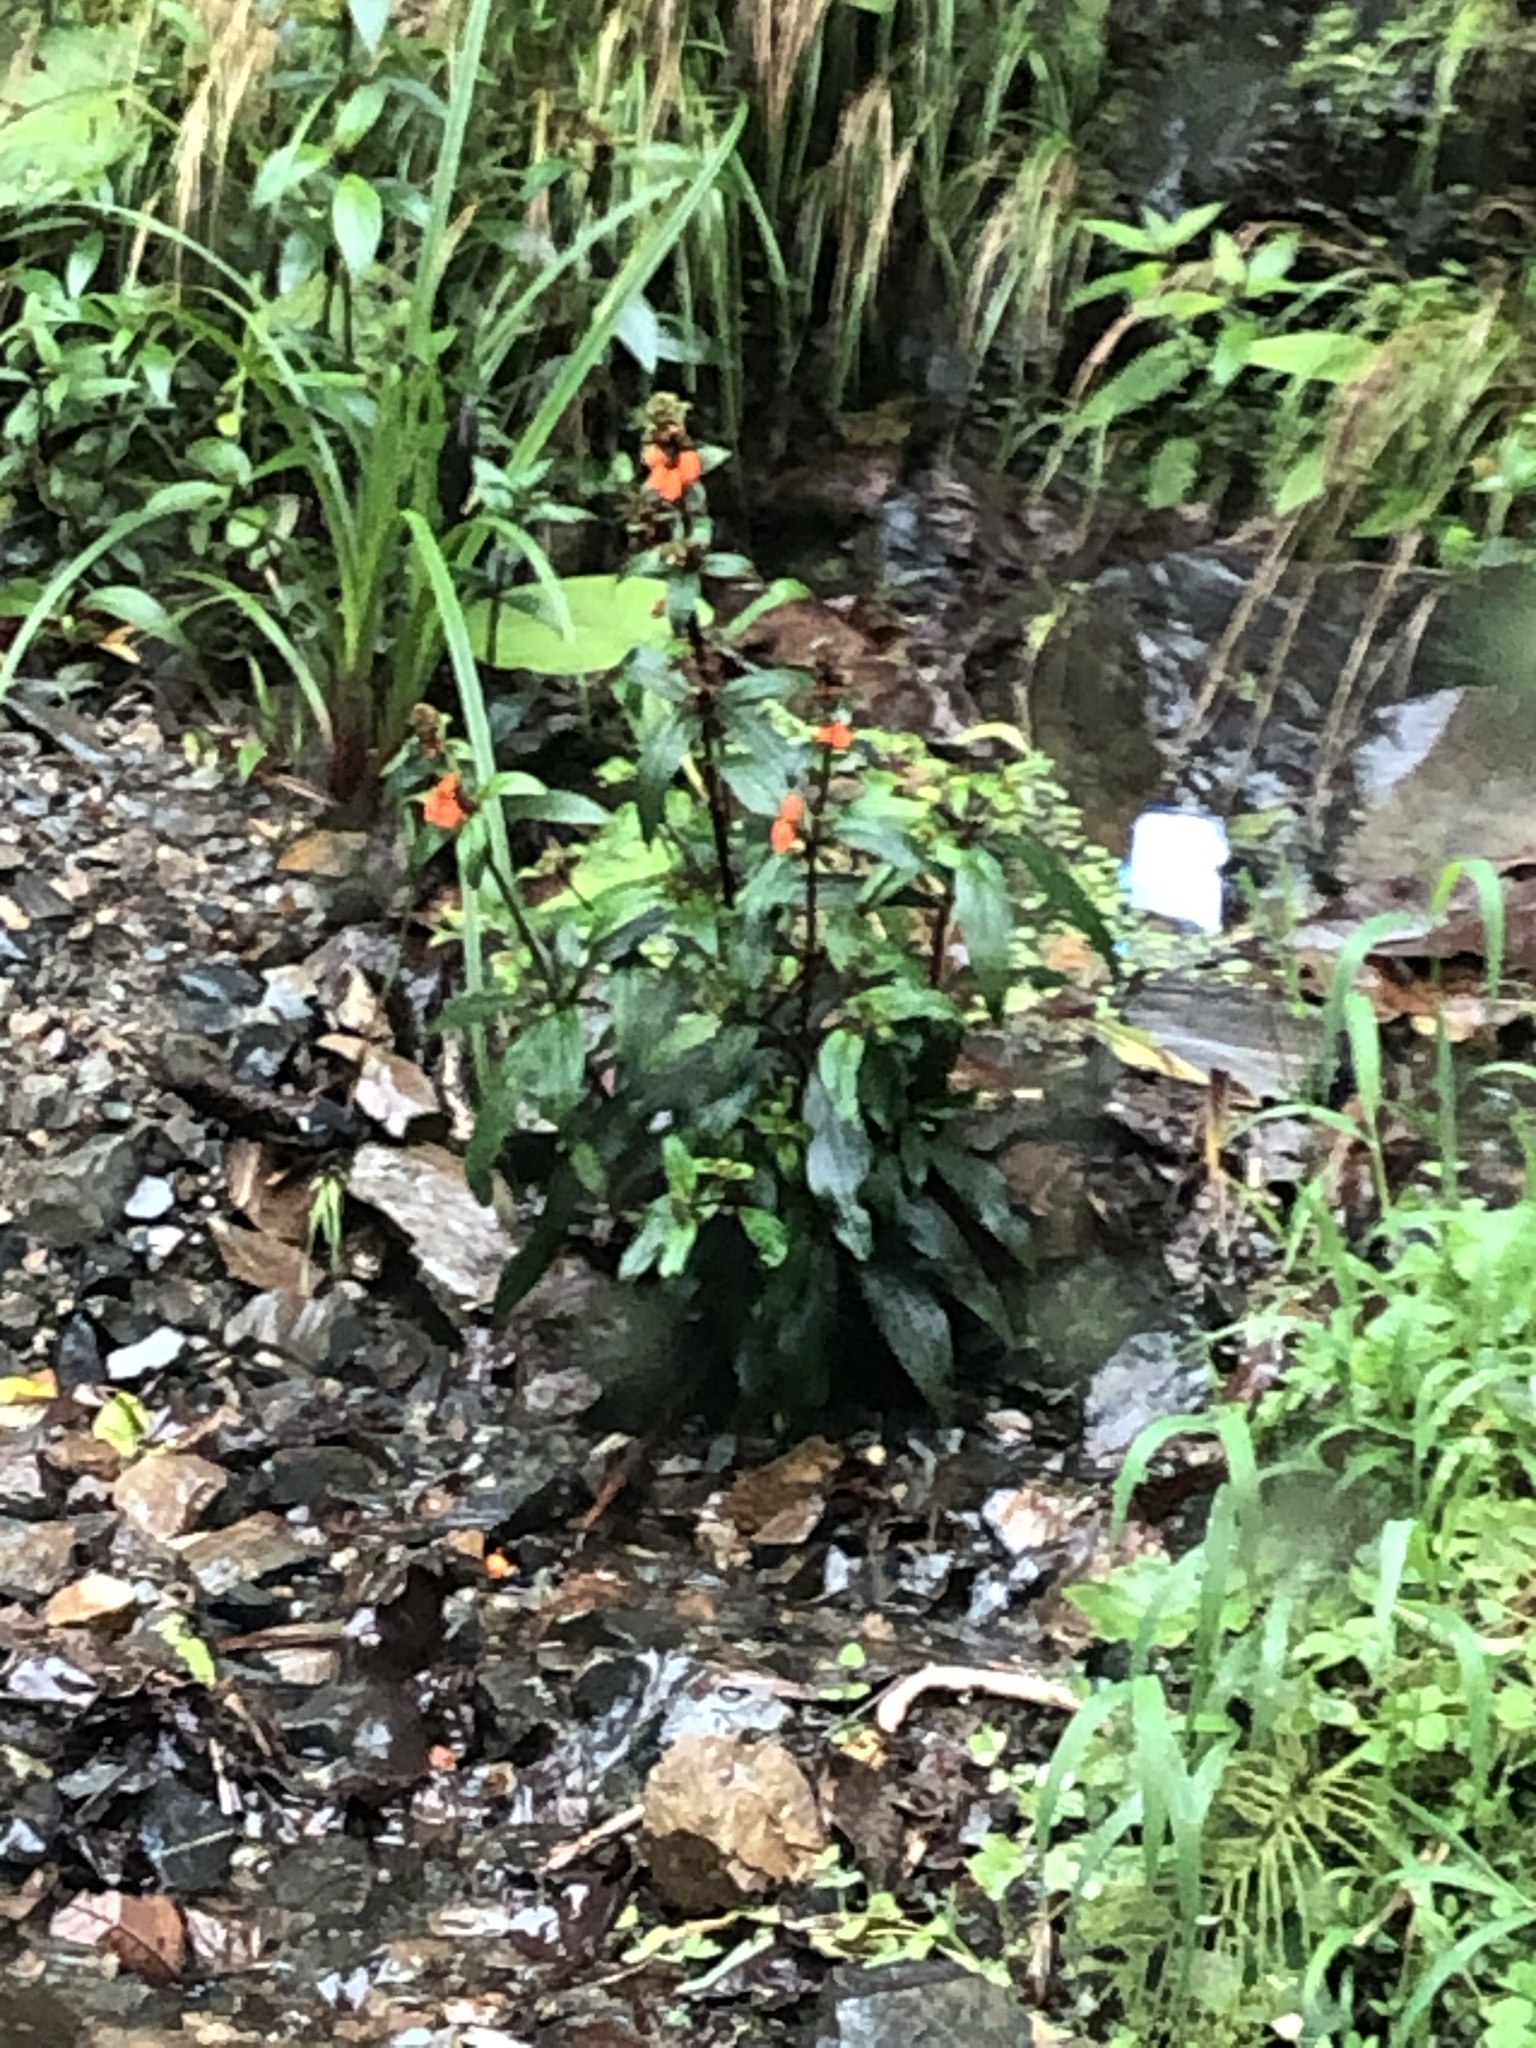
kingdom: Plantae
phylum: Tracheophyta
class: Magnoliopsida
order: Lamiales
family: Gesneriaceae
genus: Seemannia
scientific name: Seemannia sylvatica
